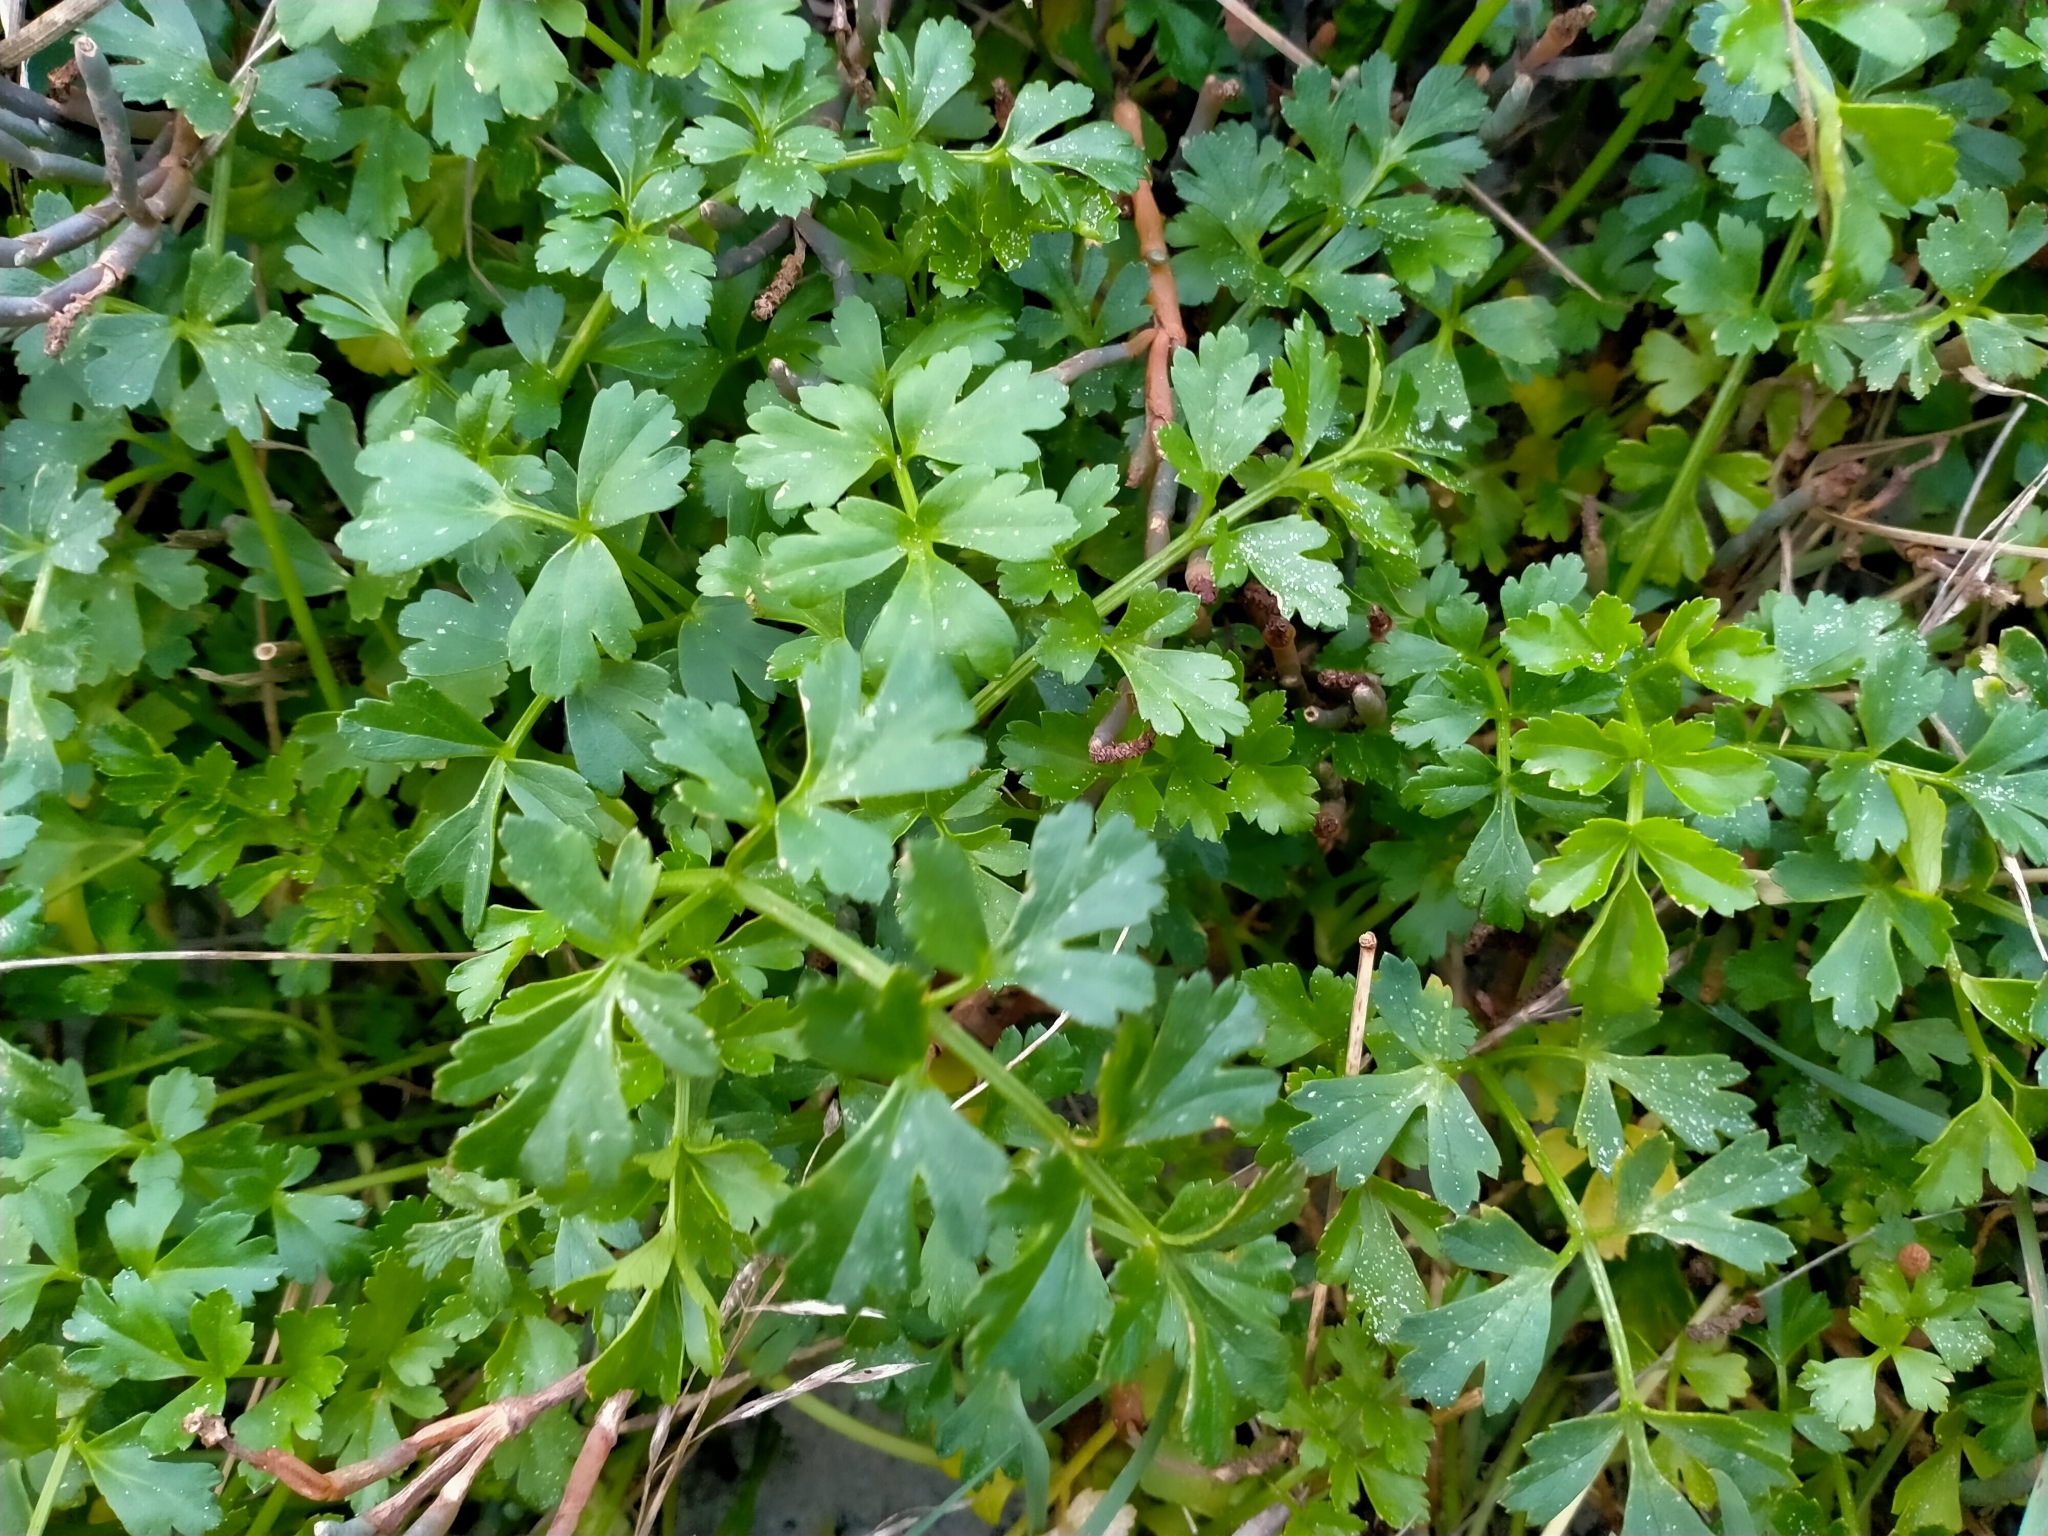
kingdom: Plantae
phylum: Tracheophyta
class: Magnoliopsida
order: Apiales
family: Apiaceae
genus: Apium
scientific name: Apium prostratum
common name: Prostrate marshwort
